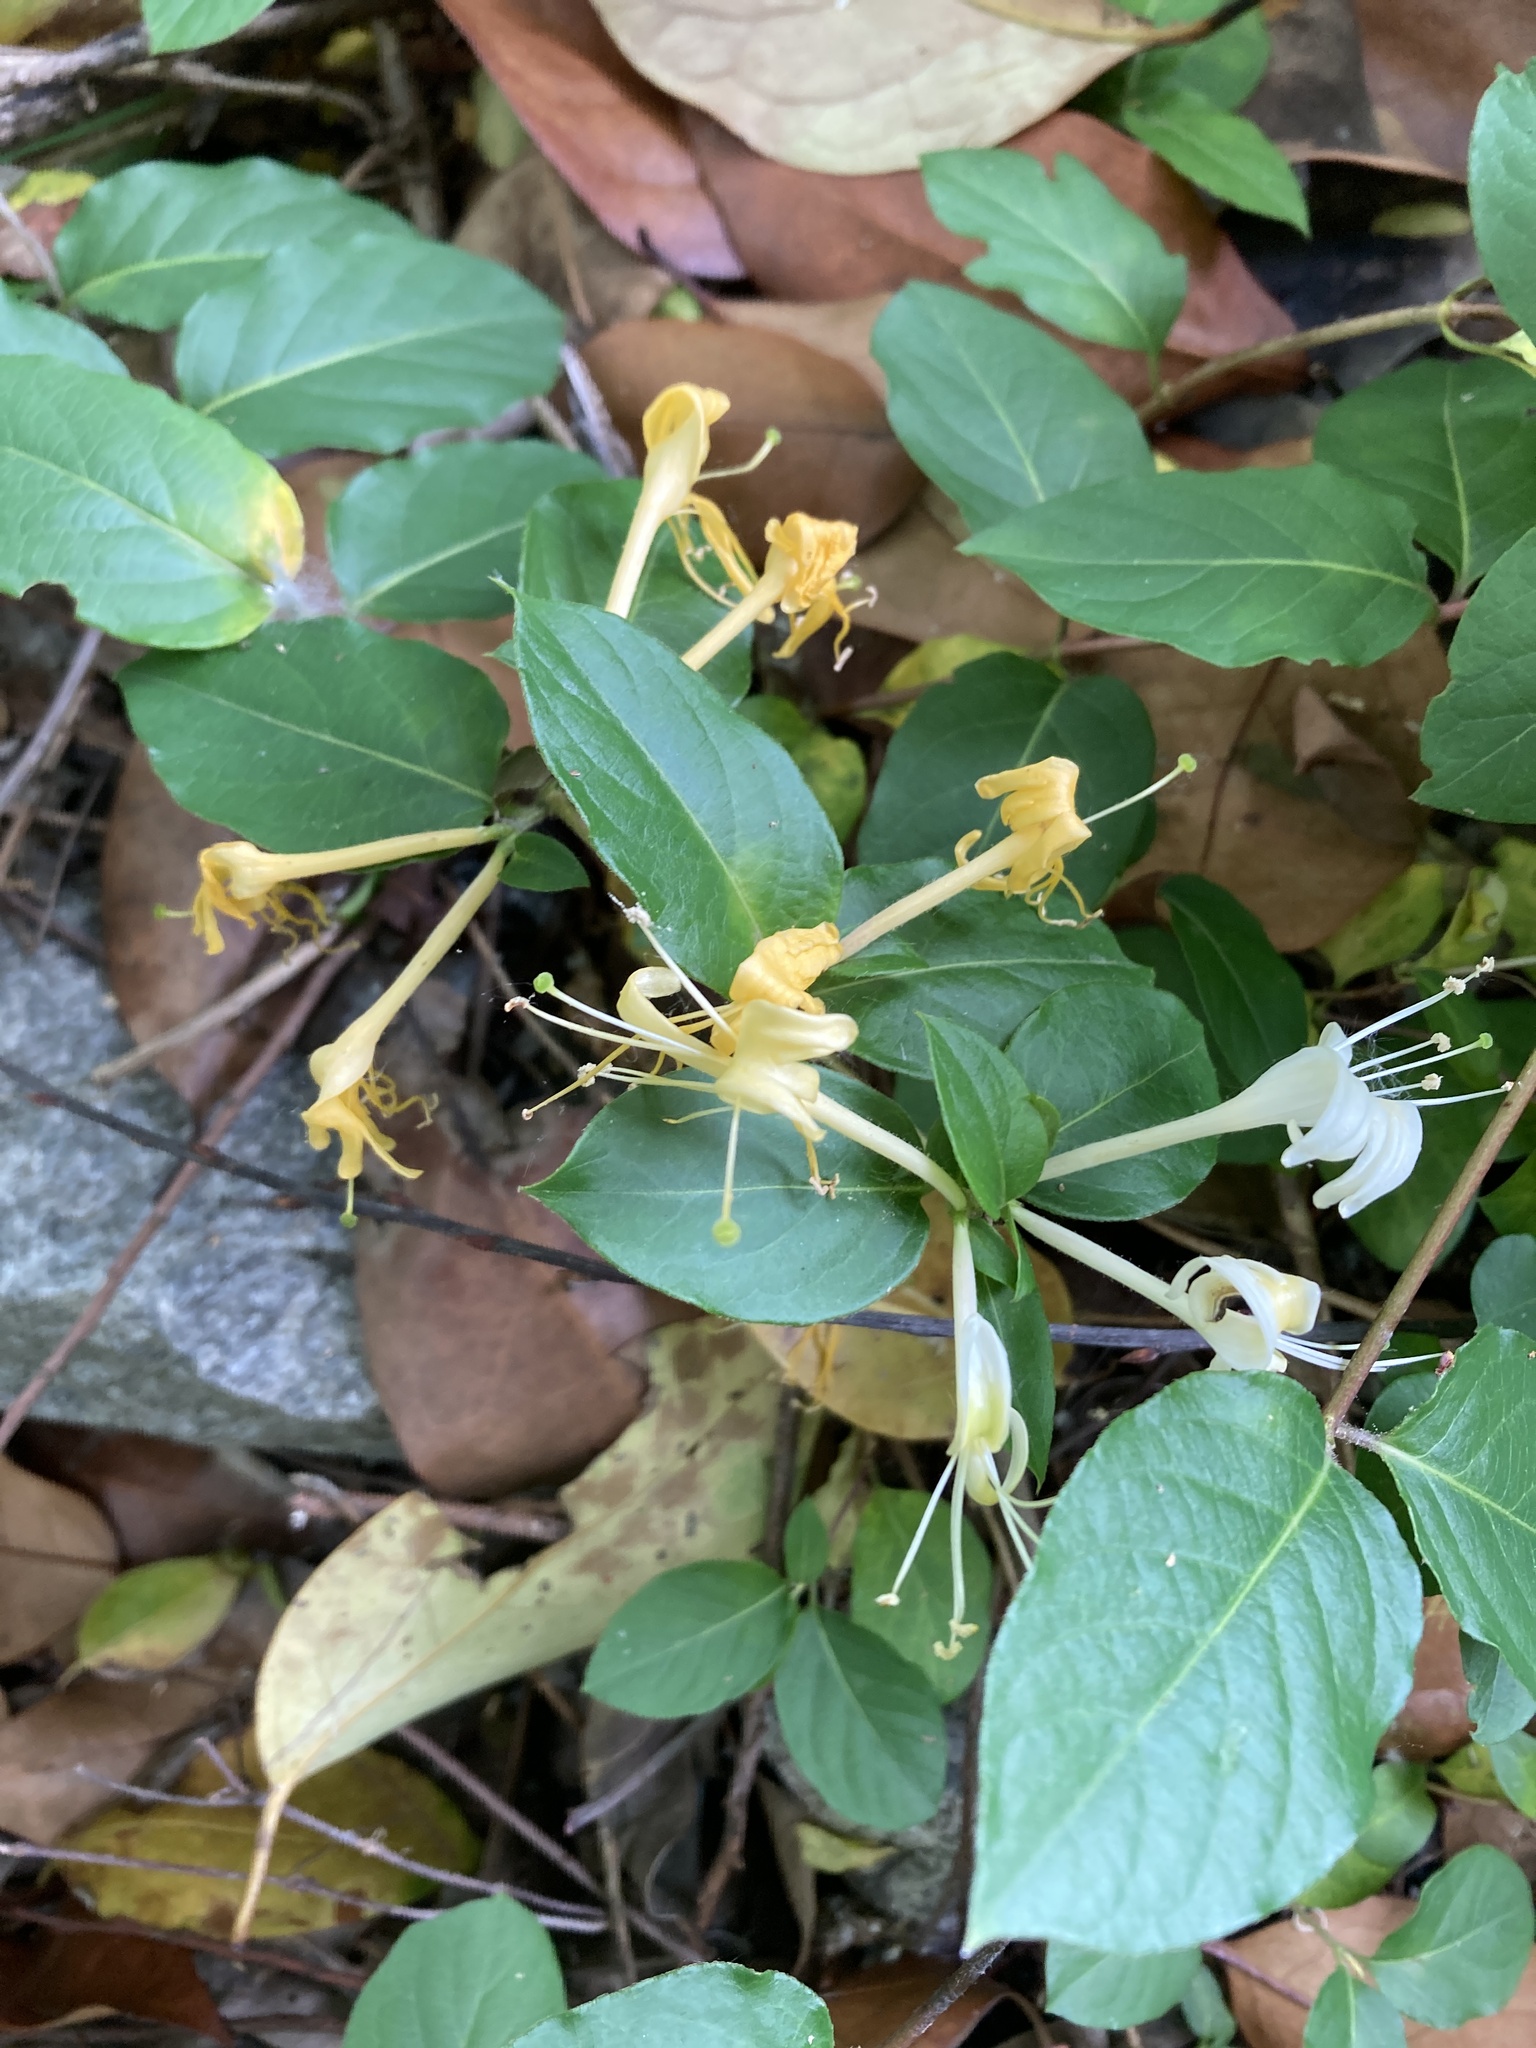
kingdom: Plantae
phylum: Tracheophyta
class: Magnoliopsida
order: Dipsacales
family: Caprifoliaceae
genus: Lonicera
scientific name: Lonicera japonica
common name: Japanese honeysuckle
